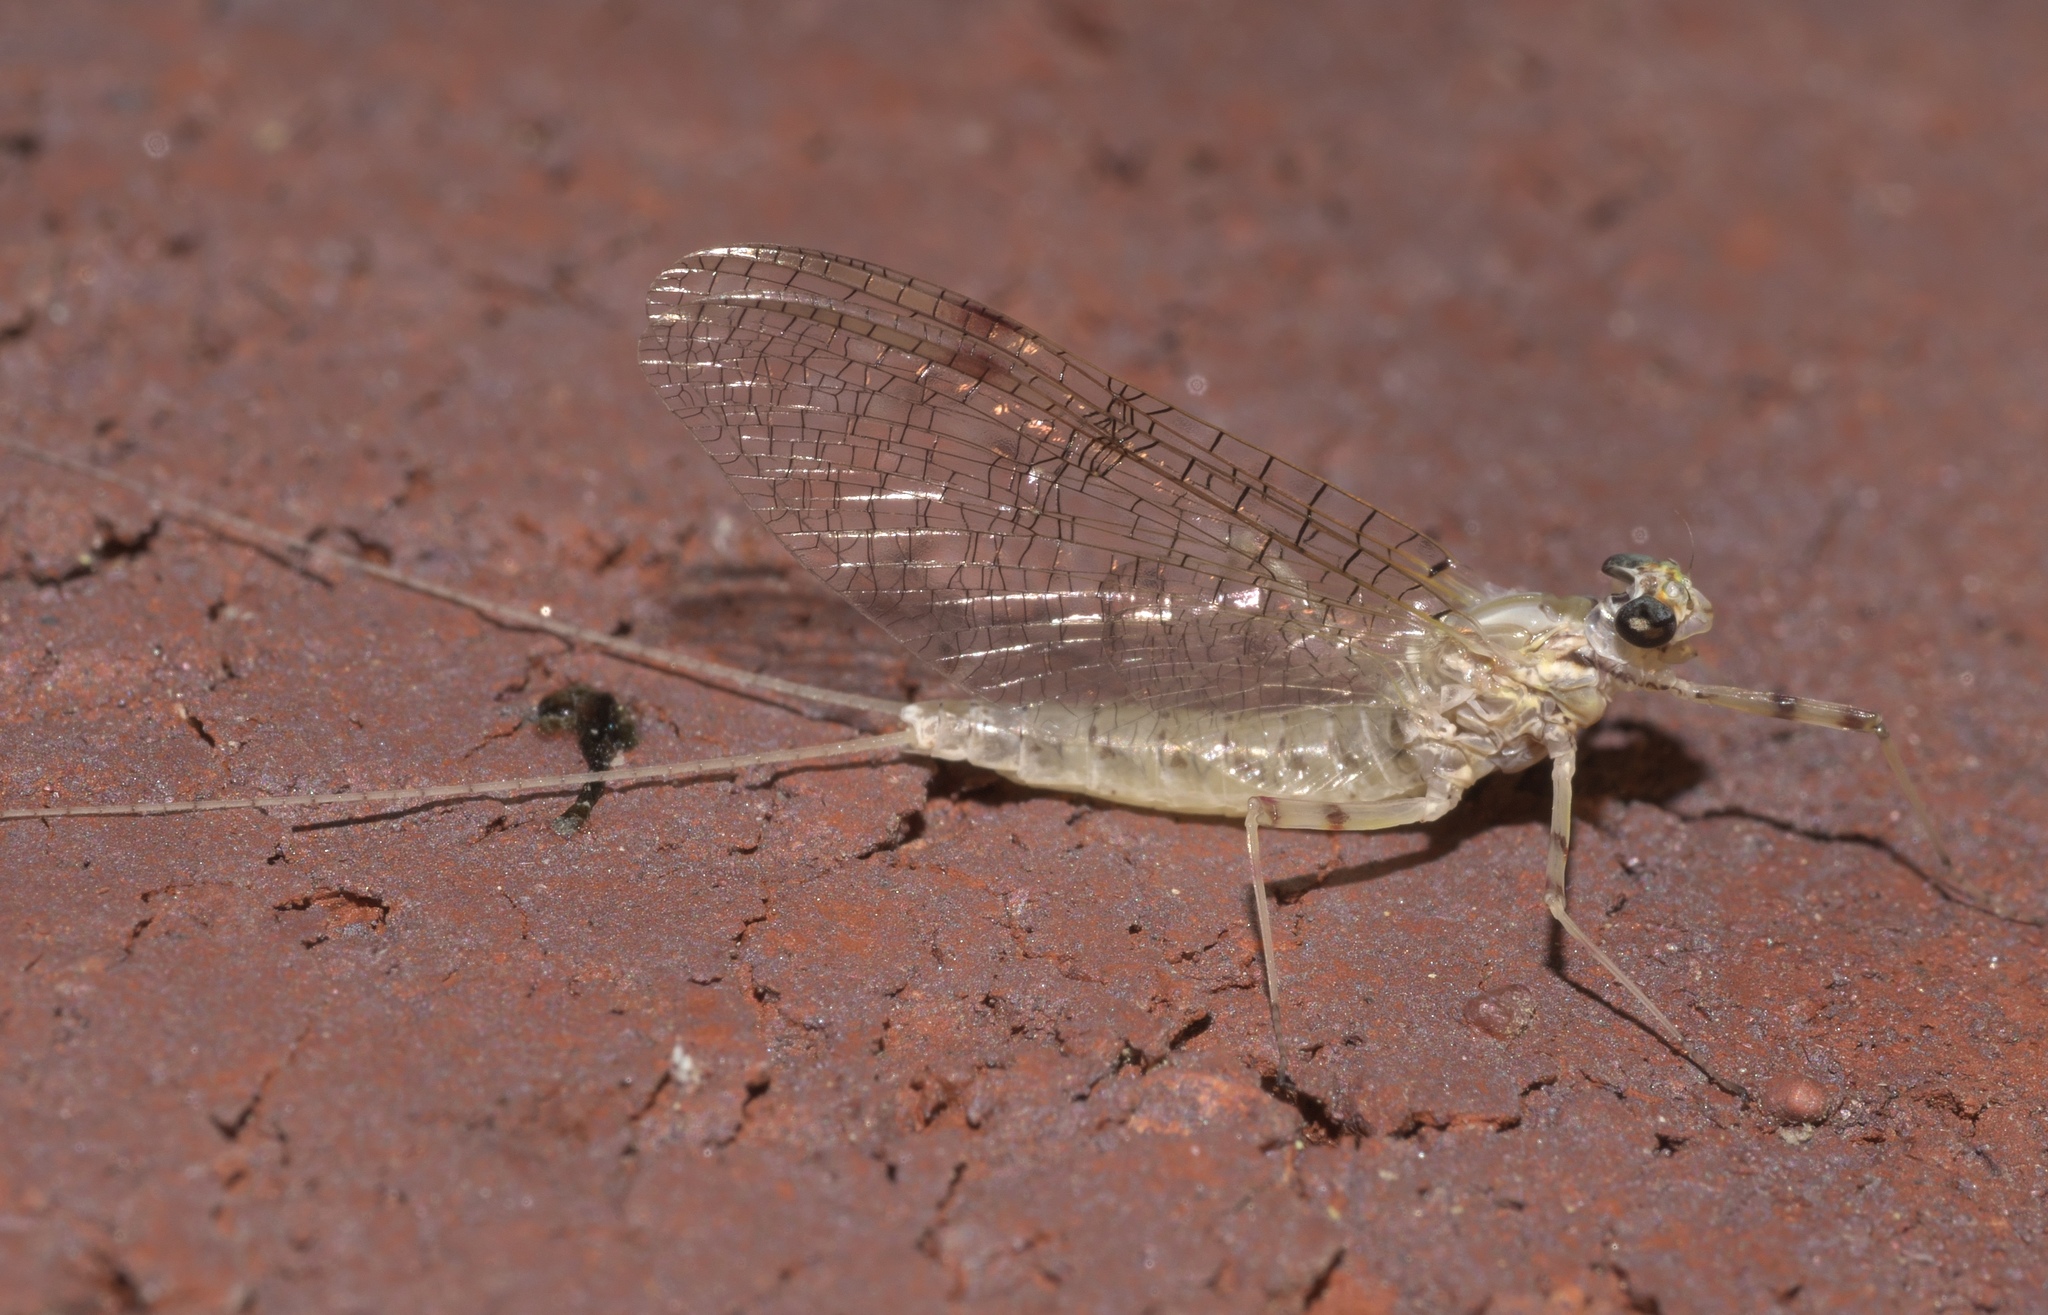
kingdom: Animalia
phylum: Arthropoda
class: Insecta
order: Ephemeroptera
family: Heptageniidae
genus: Stenonema
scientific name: Stenonema femoratum
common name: Dark cahill
